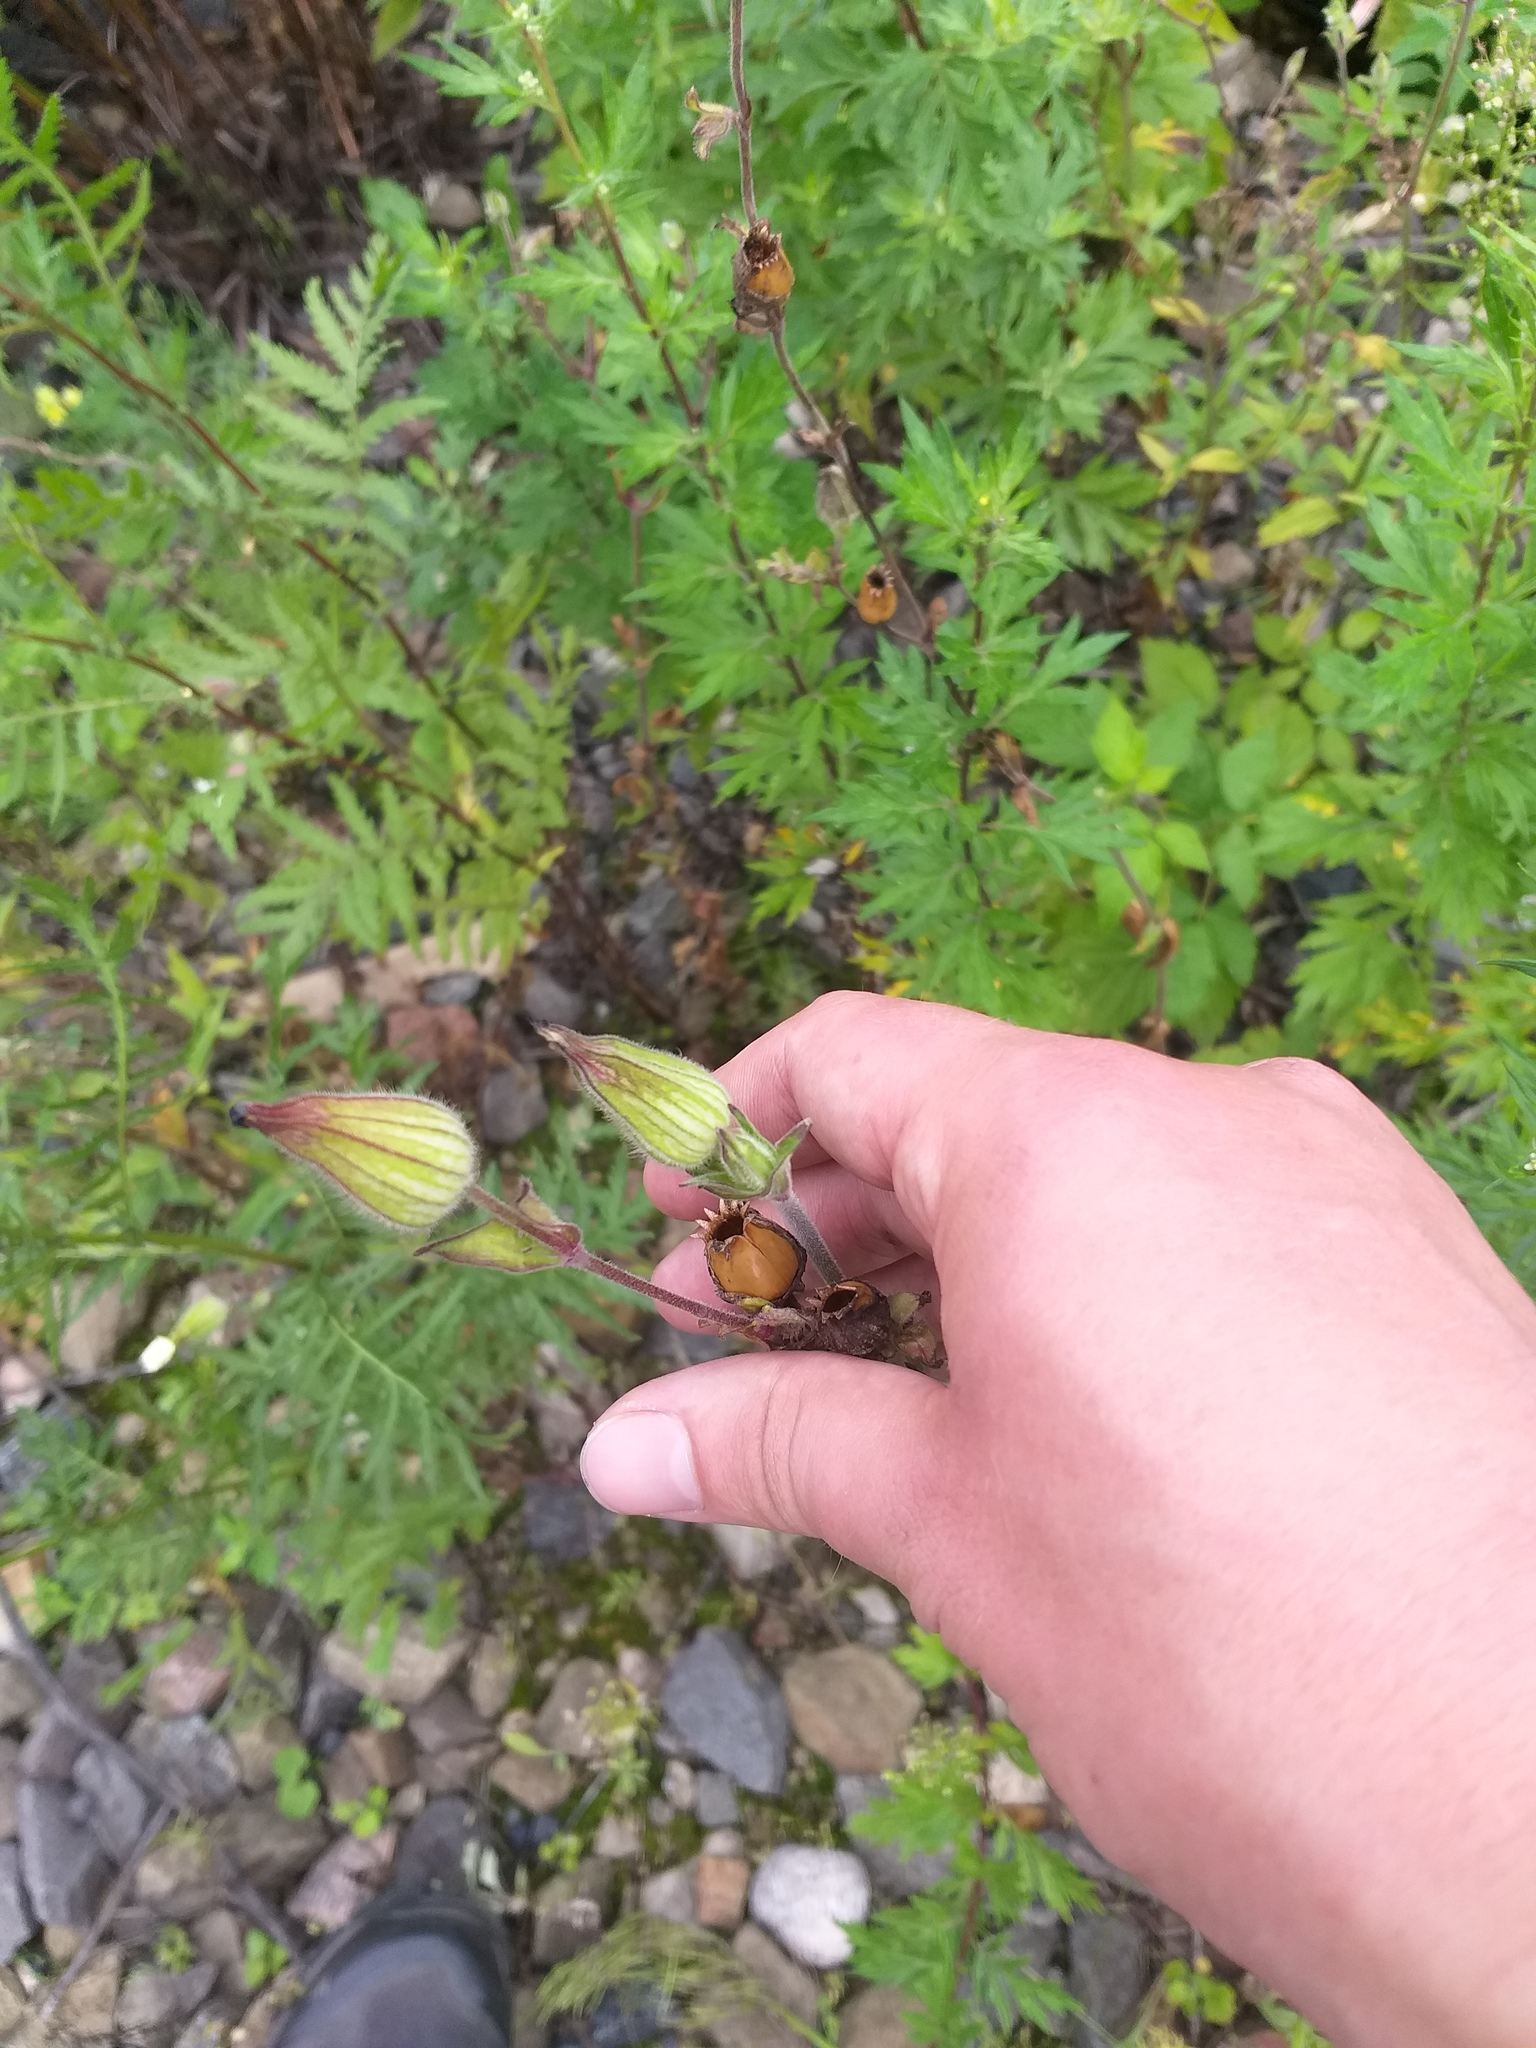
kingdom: Plantae
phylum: Tracheophyta
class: Magnoliopsida
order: Caryophyllales
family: Caryophyllaceae
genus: Silene
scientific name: Silene latifolia
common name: White campion
